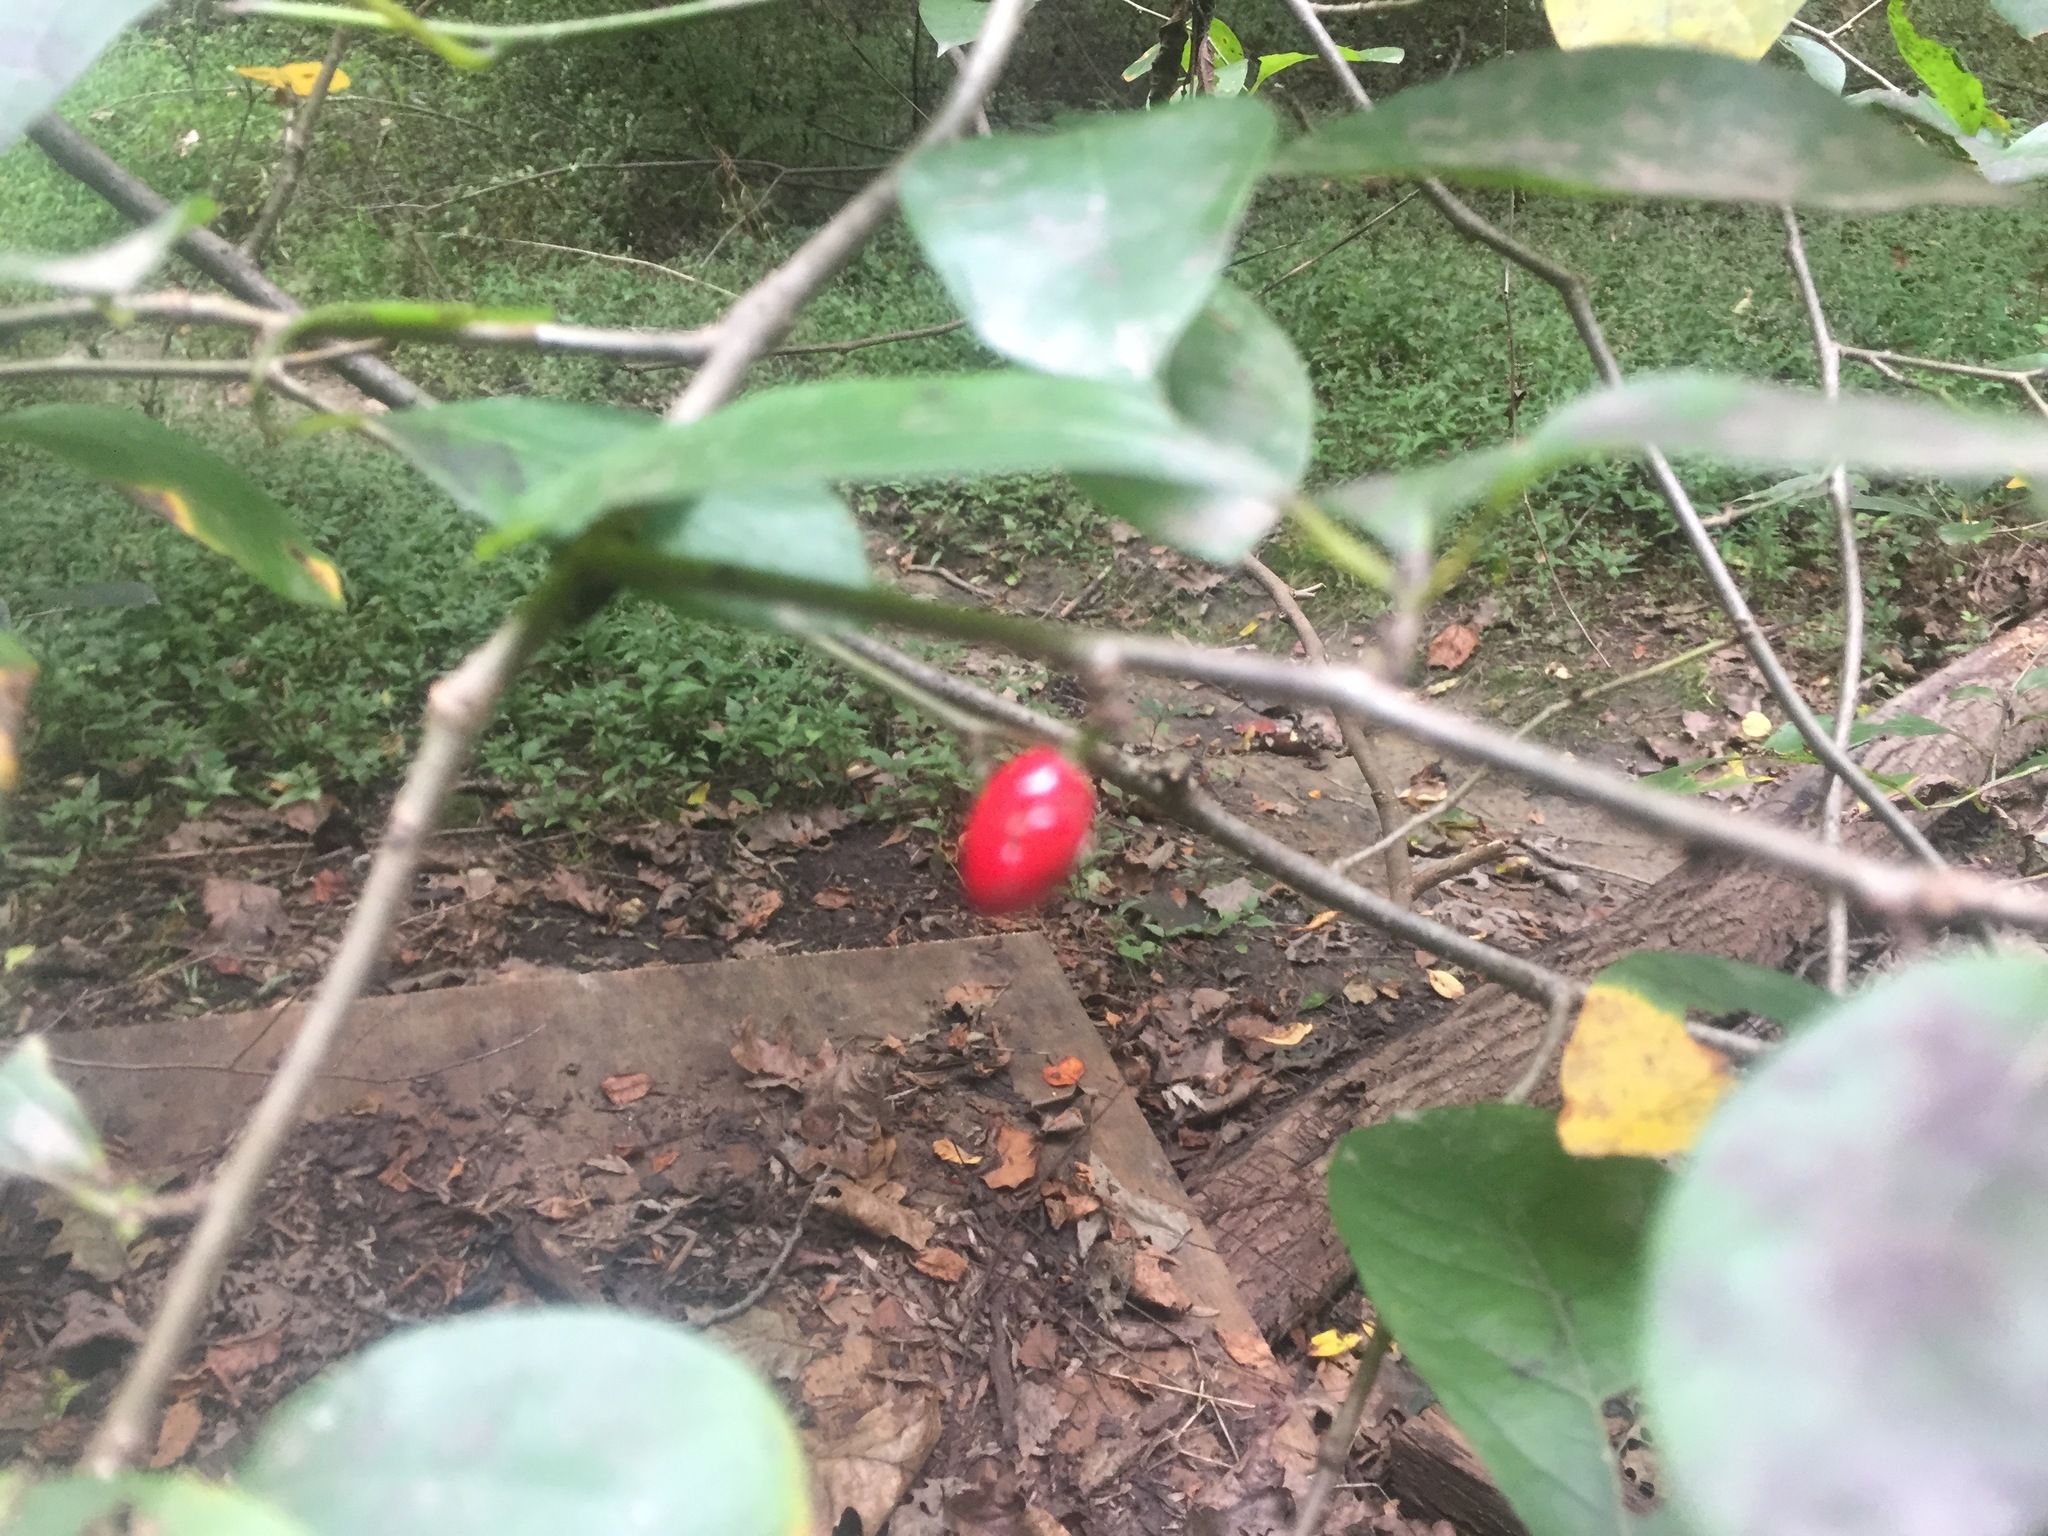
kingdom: Plantae
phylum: Tracheophyta
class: Magnoliopsida
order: Laurales
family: Lauraceae
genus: Lindera
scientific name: Lindera benzoin
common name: Spicebush
